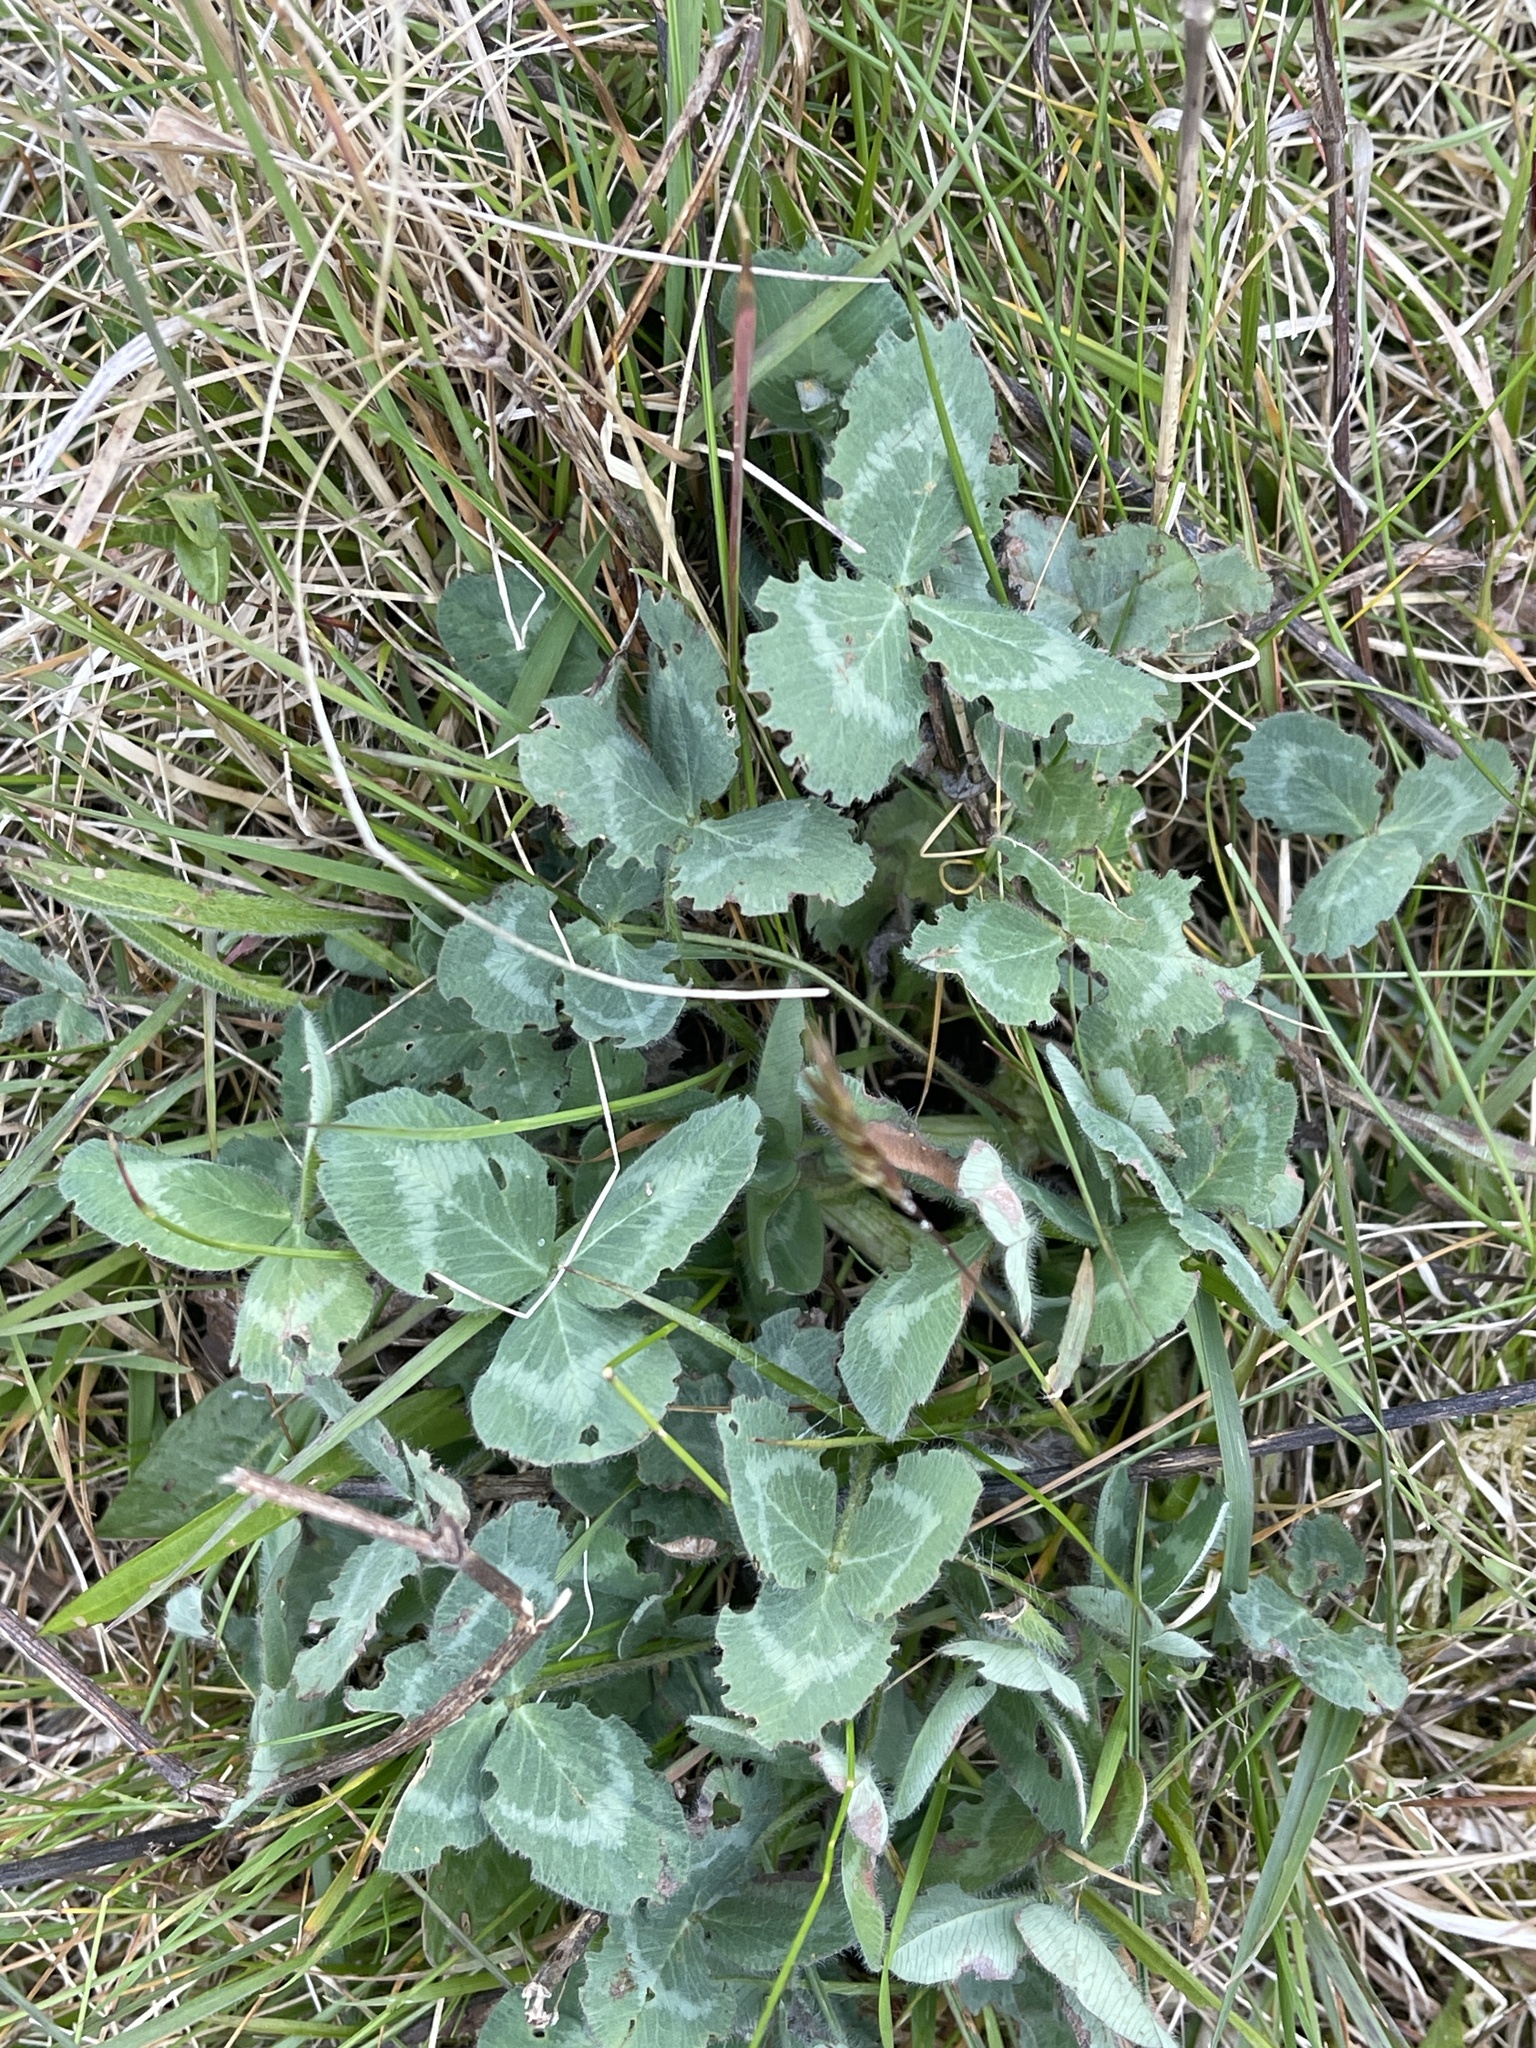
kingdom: Plantae
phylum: Tracheophyta
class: Magnoliopsida
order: Fabales
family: Fabaceae
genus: Trifolium
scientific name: Trifolium pratense
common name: Red clover
